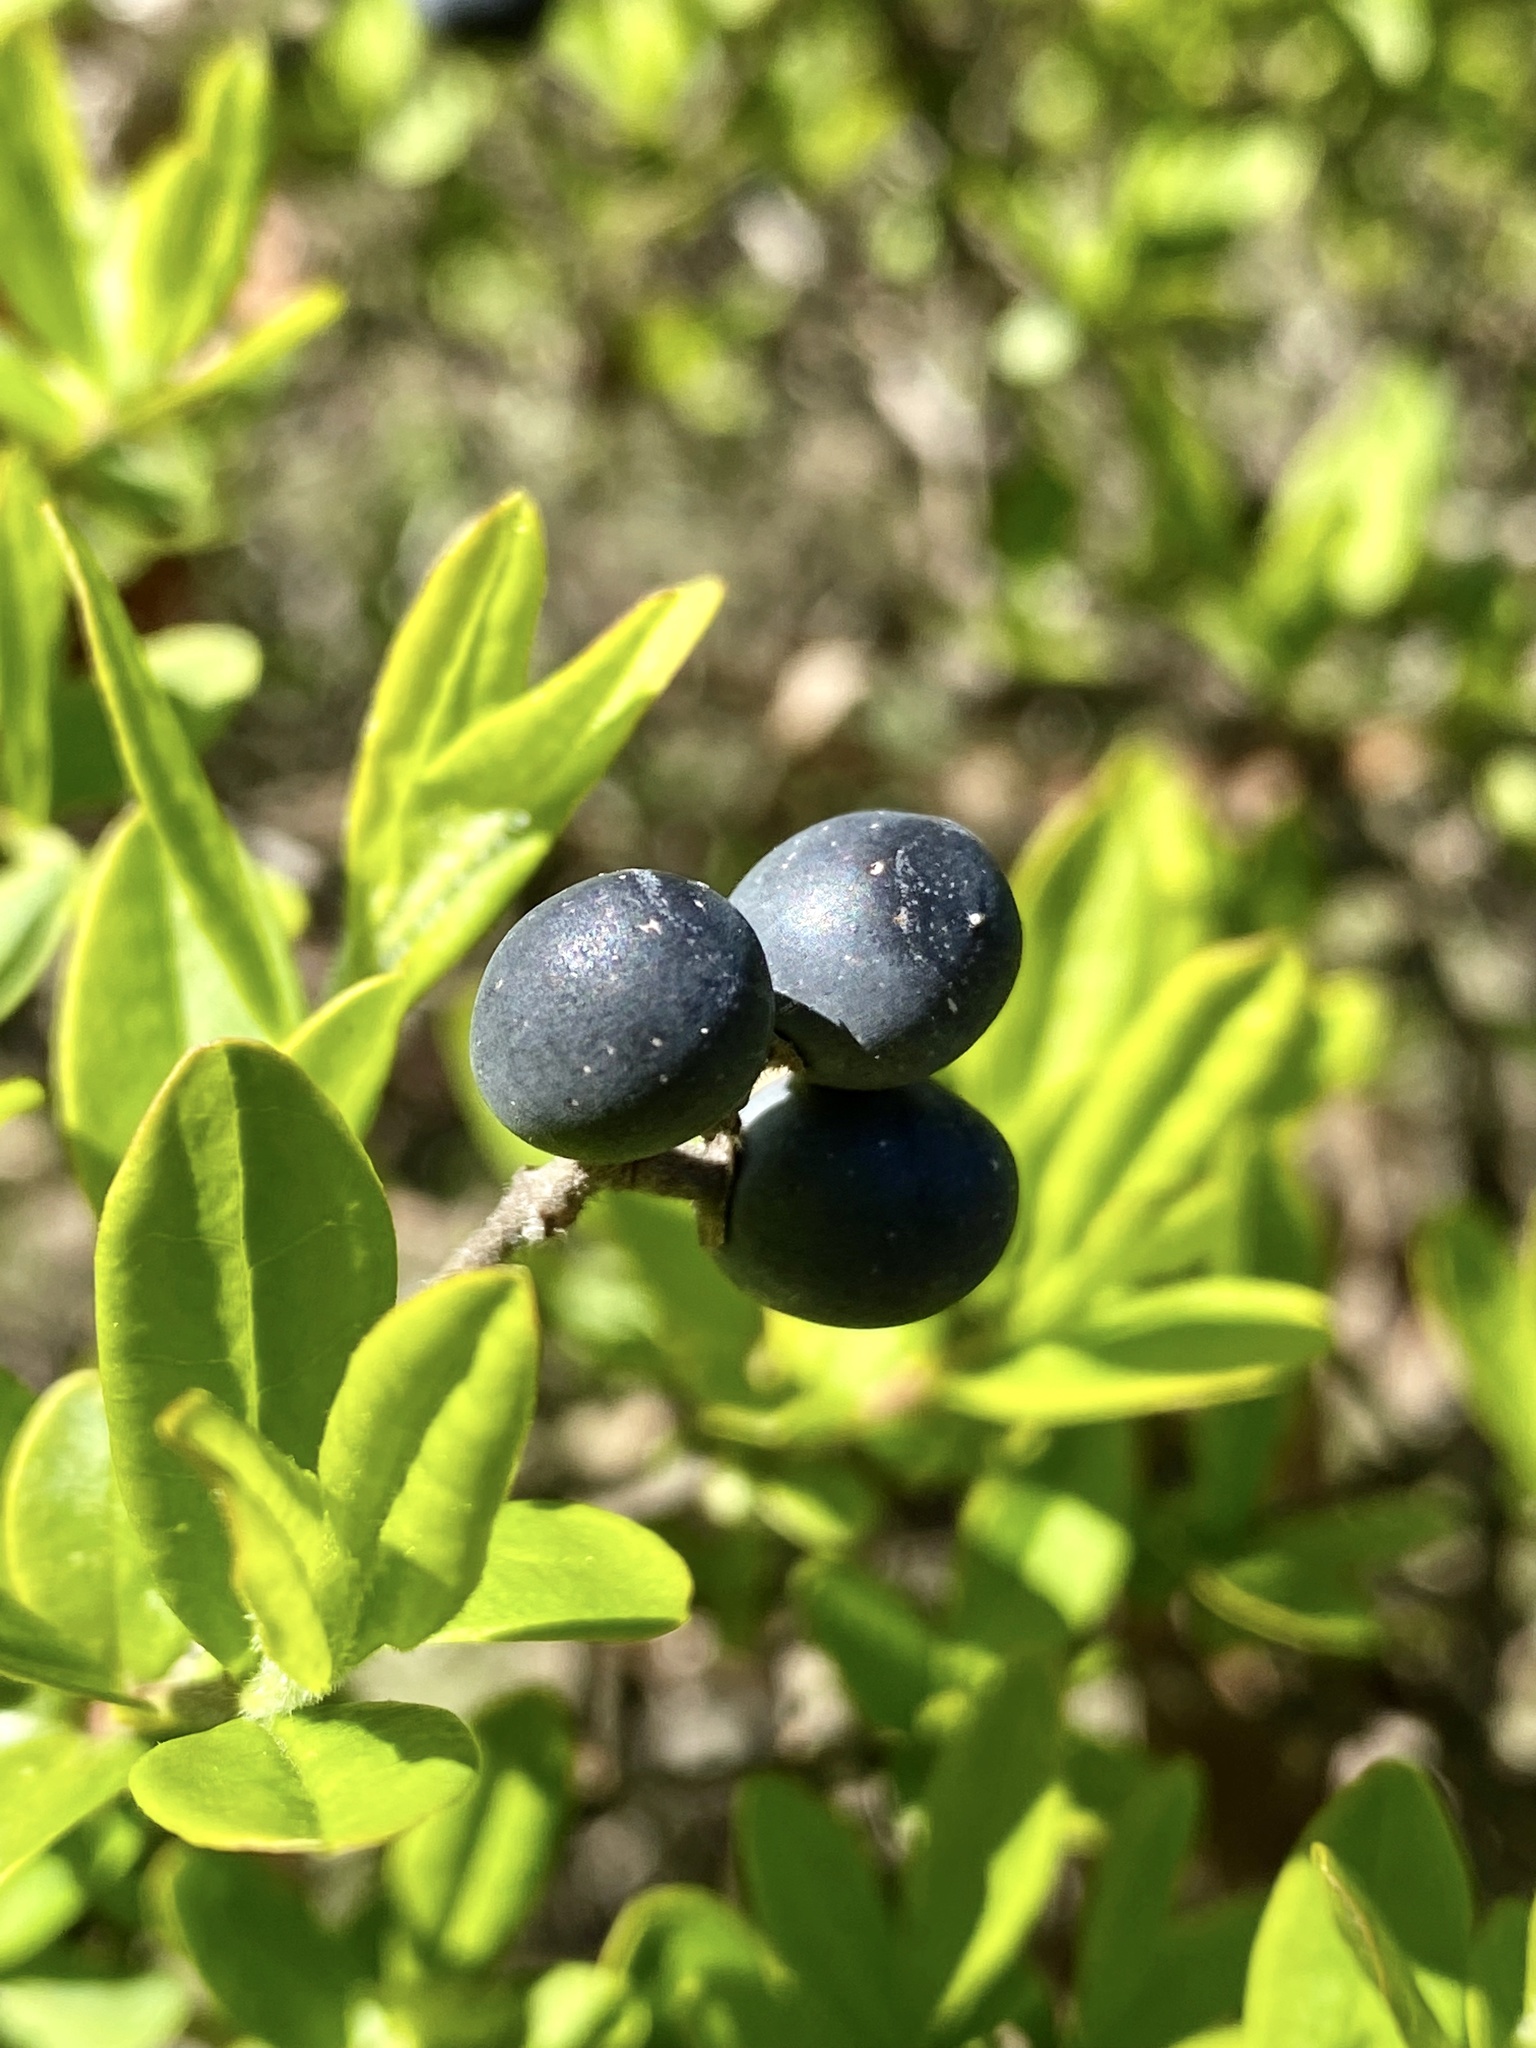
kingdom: Plantae
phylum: Tracheophyta
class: Magnoliopsida
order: Lamiales
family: Oleaceae
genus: Ligustrum
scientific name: Ligustrum obtusifolium
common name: Border privet
